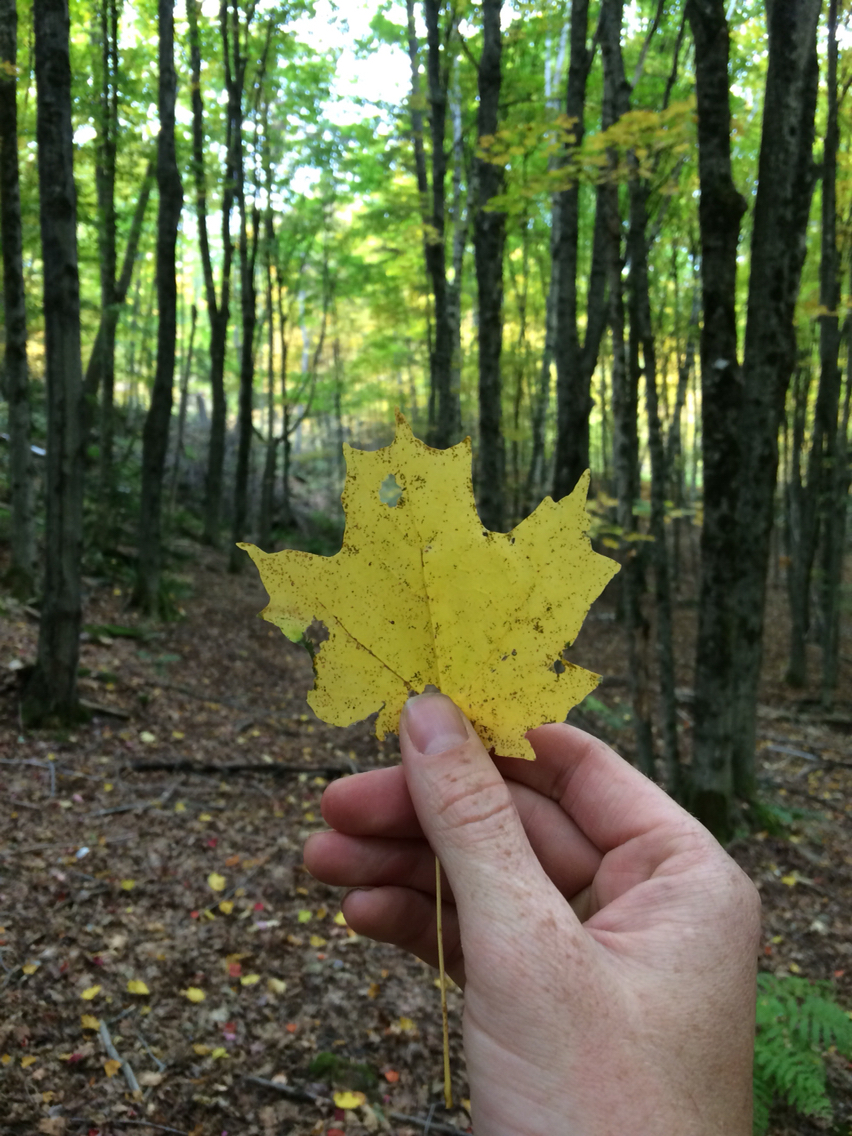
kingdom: Plantae
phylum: Tracheophyta
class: Magnoliopsida
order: Sapindales
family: Sapindaceae
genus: Acer
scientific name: Acer saccharum
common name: Sugar maple
